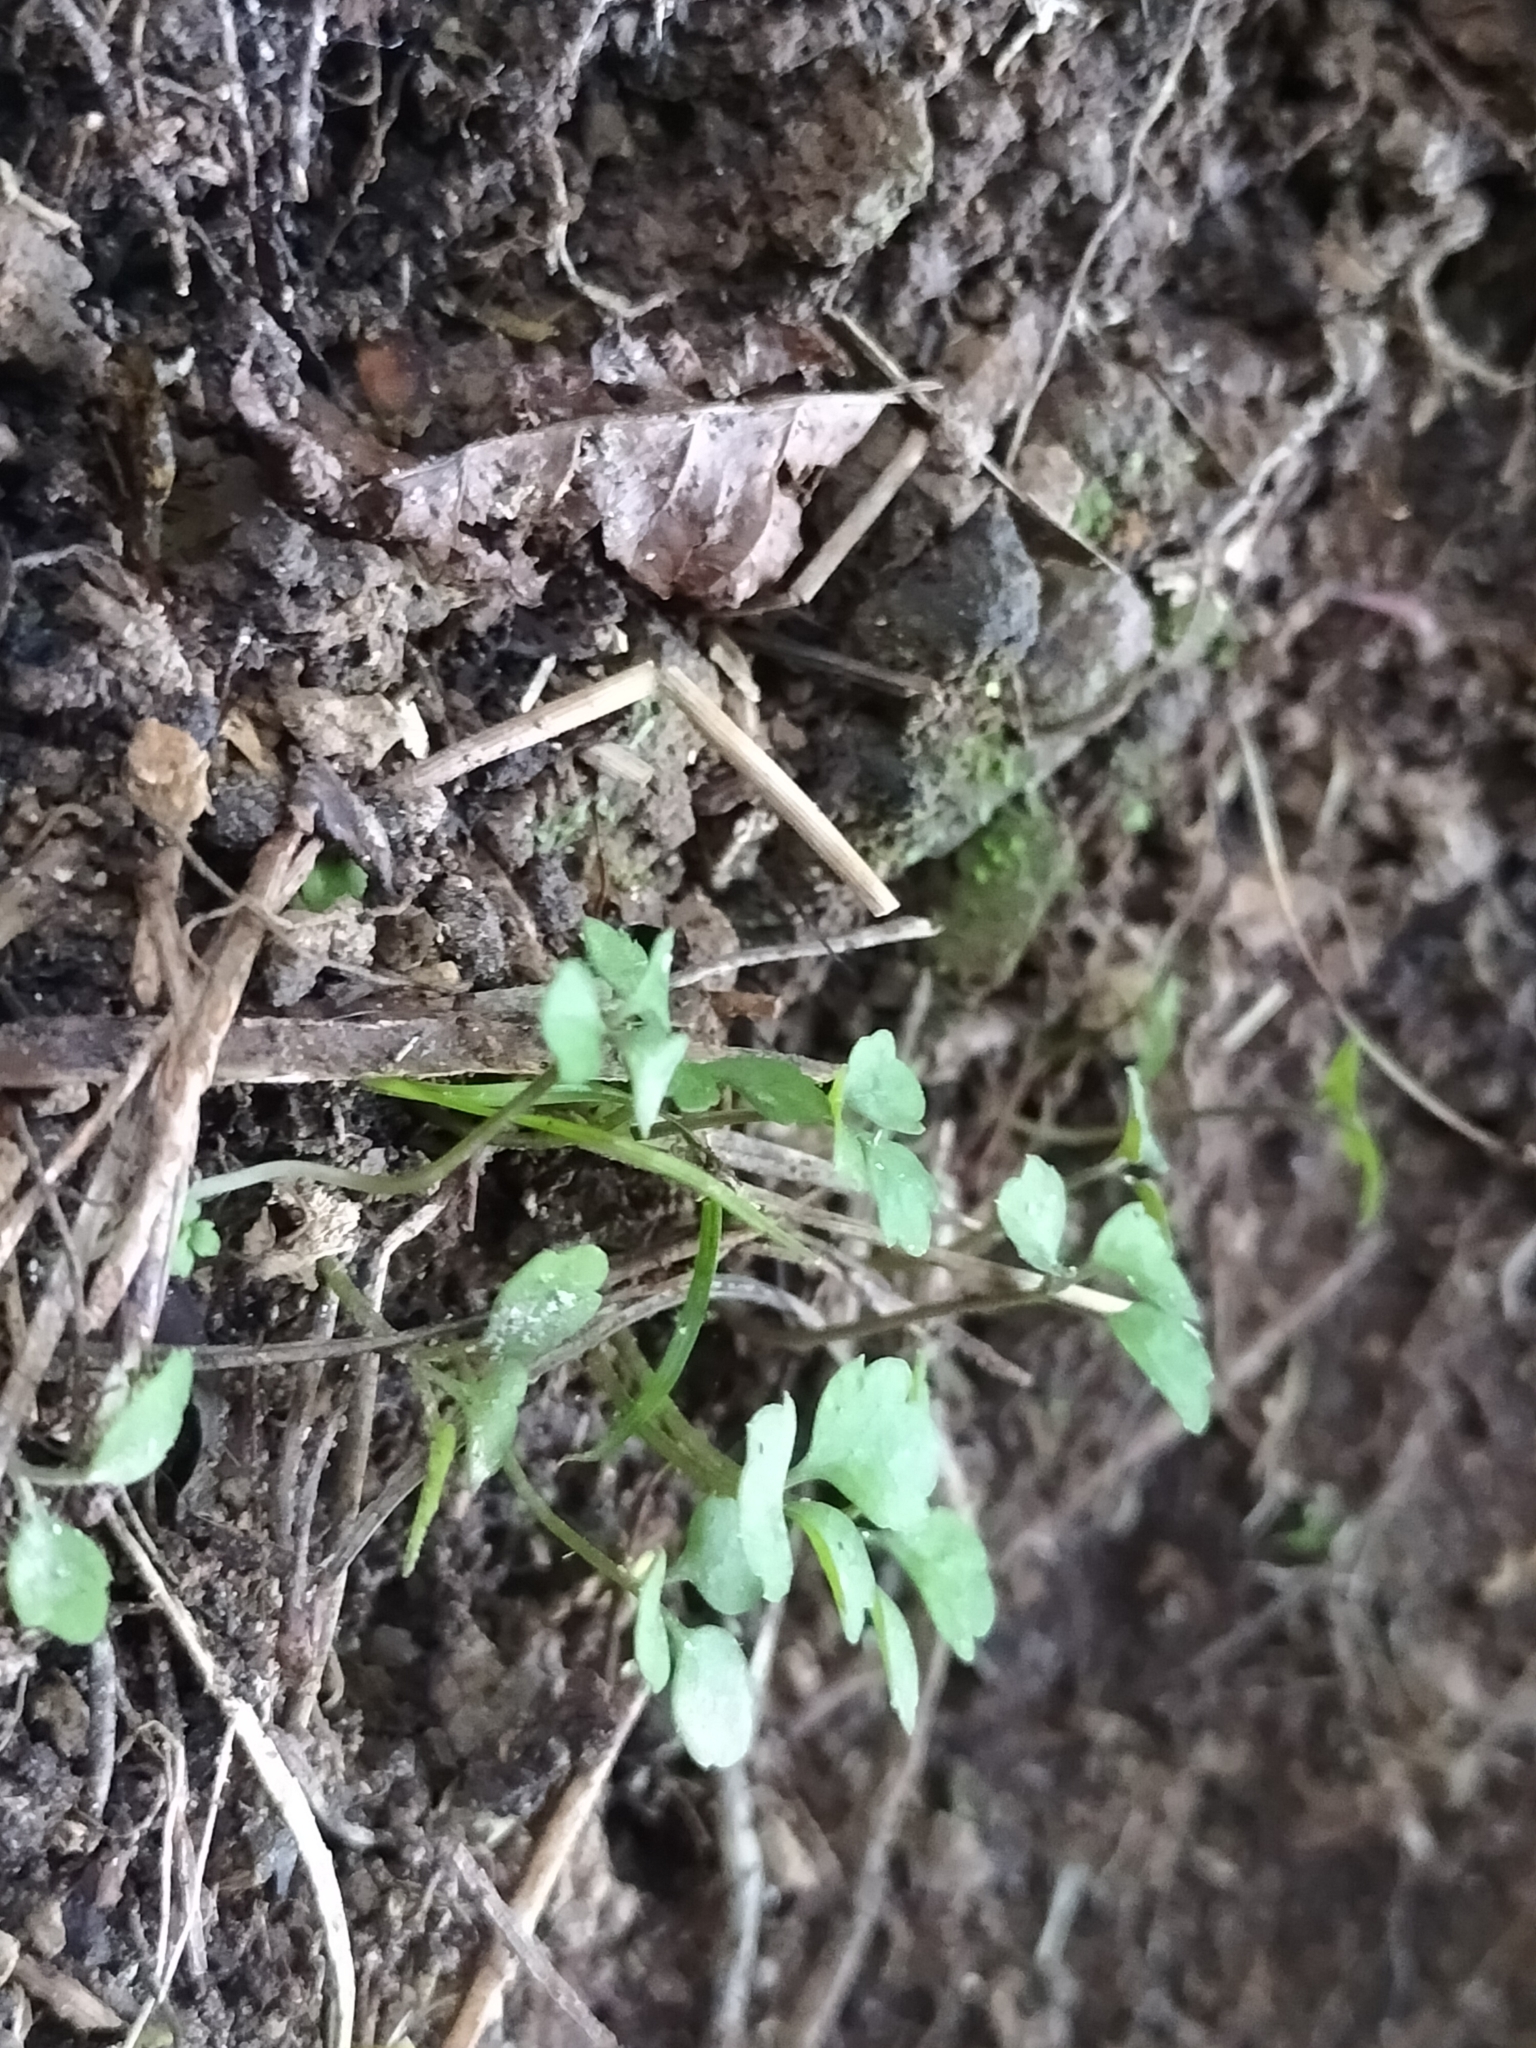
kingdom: Plantae
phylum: Tracheophyta
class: Magnoliopsida
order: Apiales
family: Apiaceae
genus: Azorella
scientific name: Azorella hookeri
